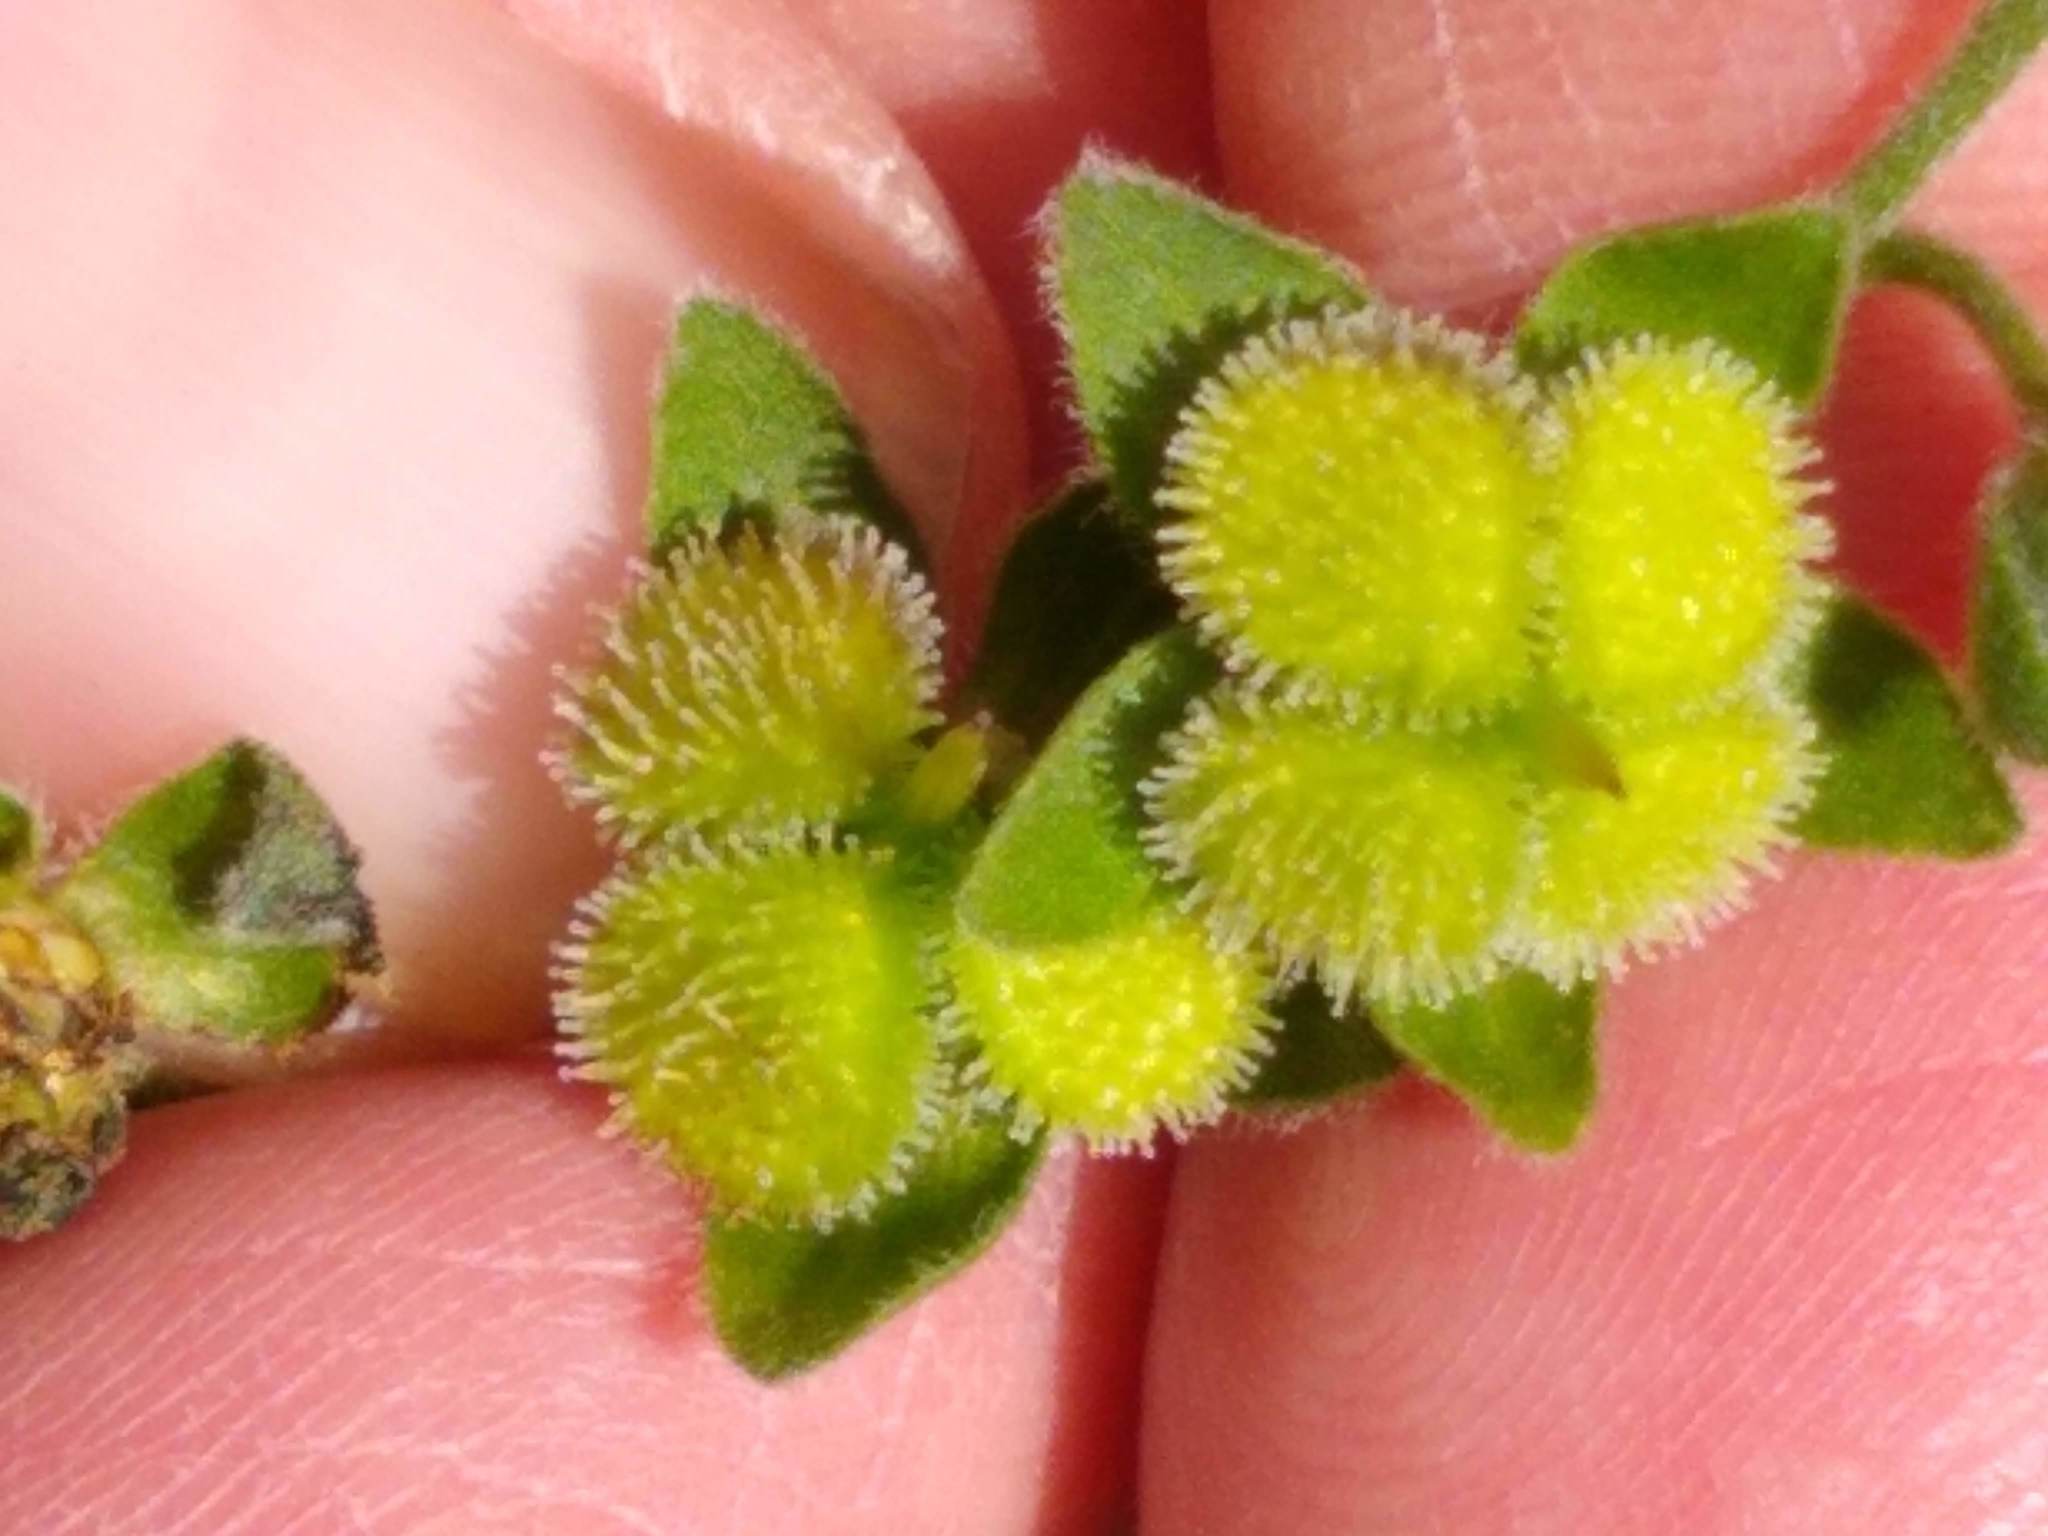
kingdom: Plantae
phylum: Tracheophyta
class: Magnoliopsida
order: Boraginales
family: Boraginaceae
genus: Cynoglossum
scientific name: Cynoglossum officinale
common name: Hound's-tongue
